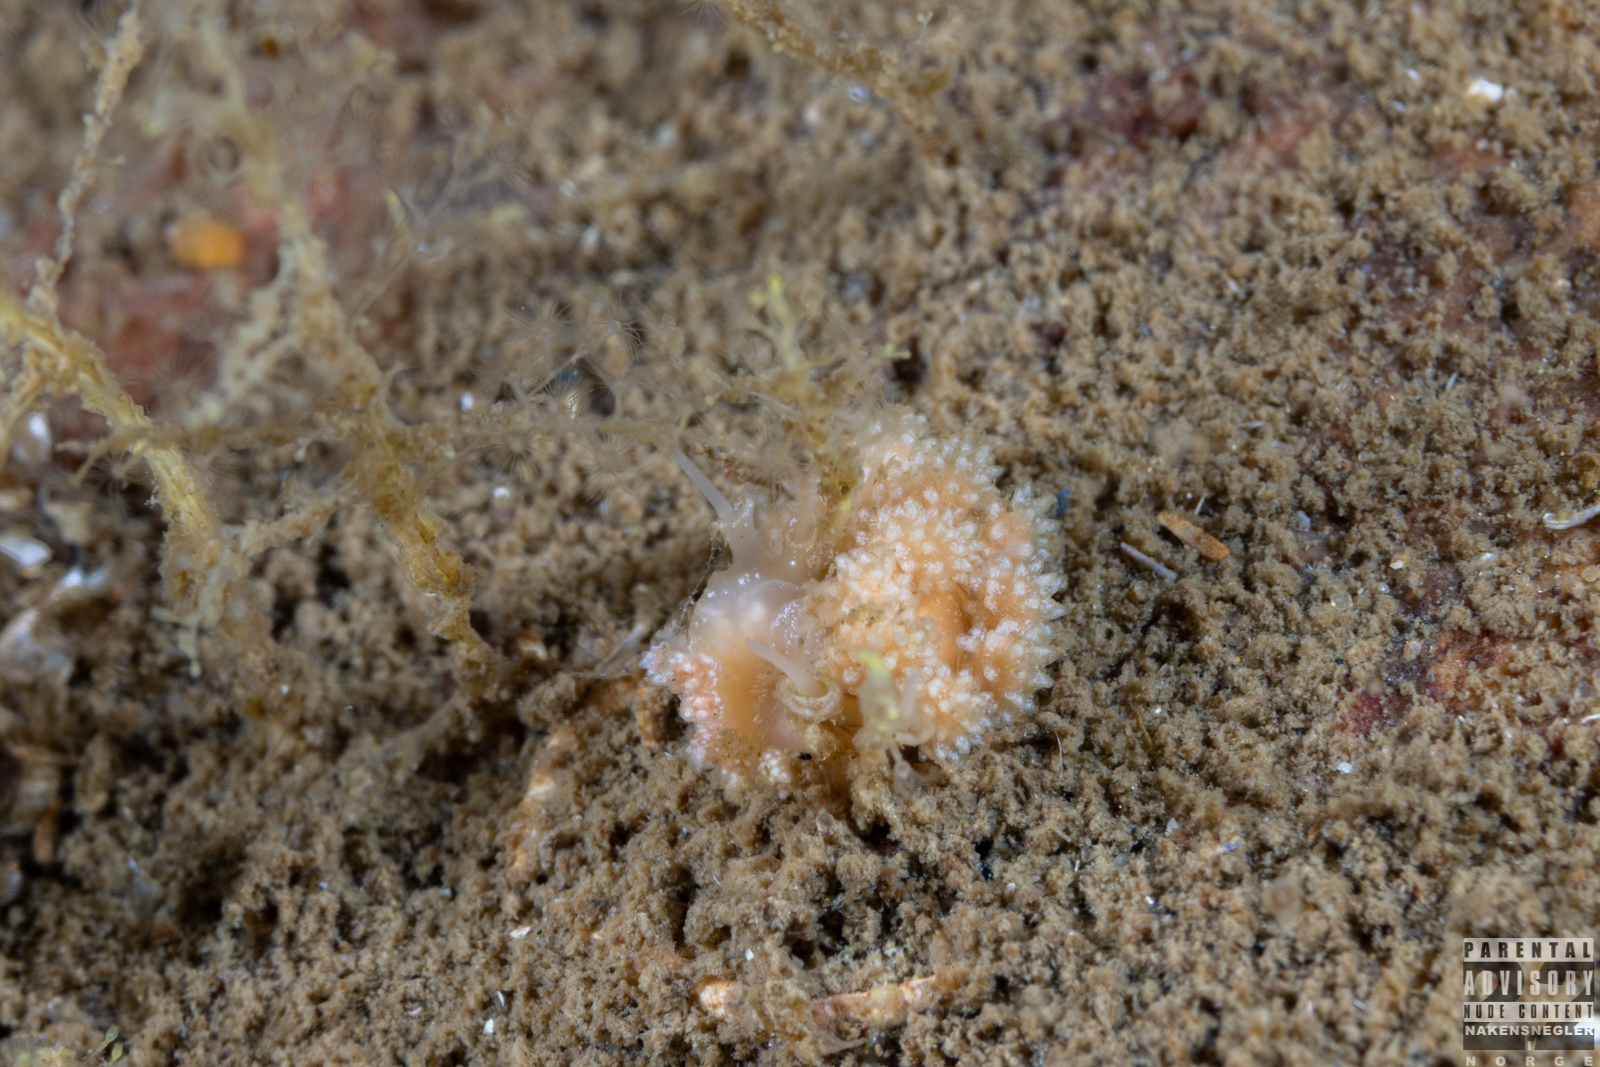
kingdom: Animalia
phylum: Mollusca
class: Gastropoda
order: Nudibranchia
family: Dotidae
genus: Doto
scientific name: Doto fragilis
